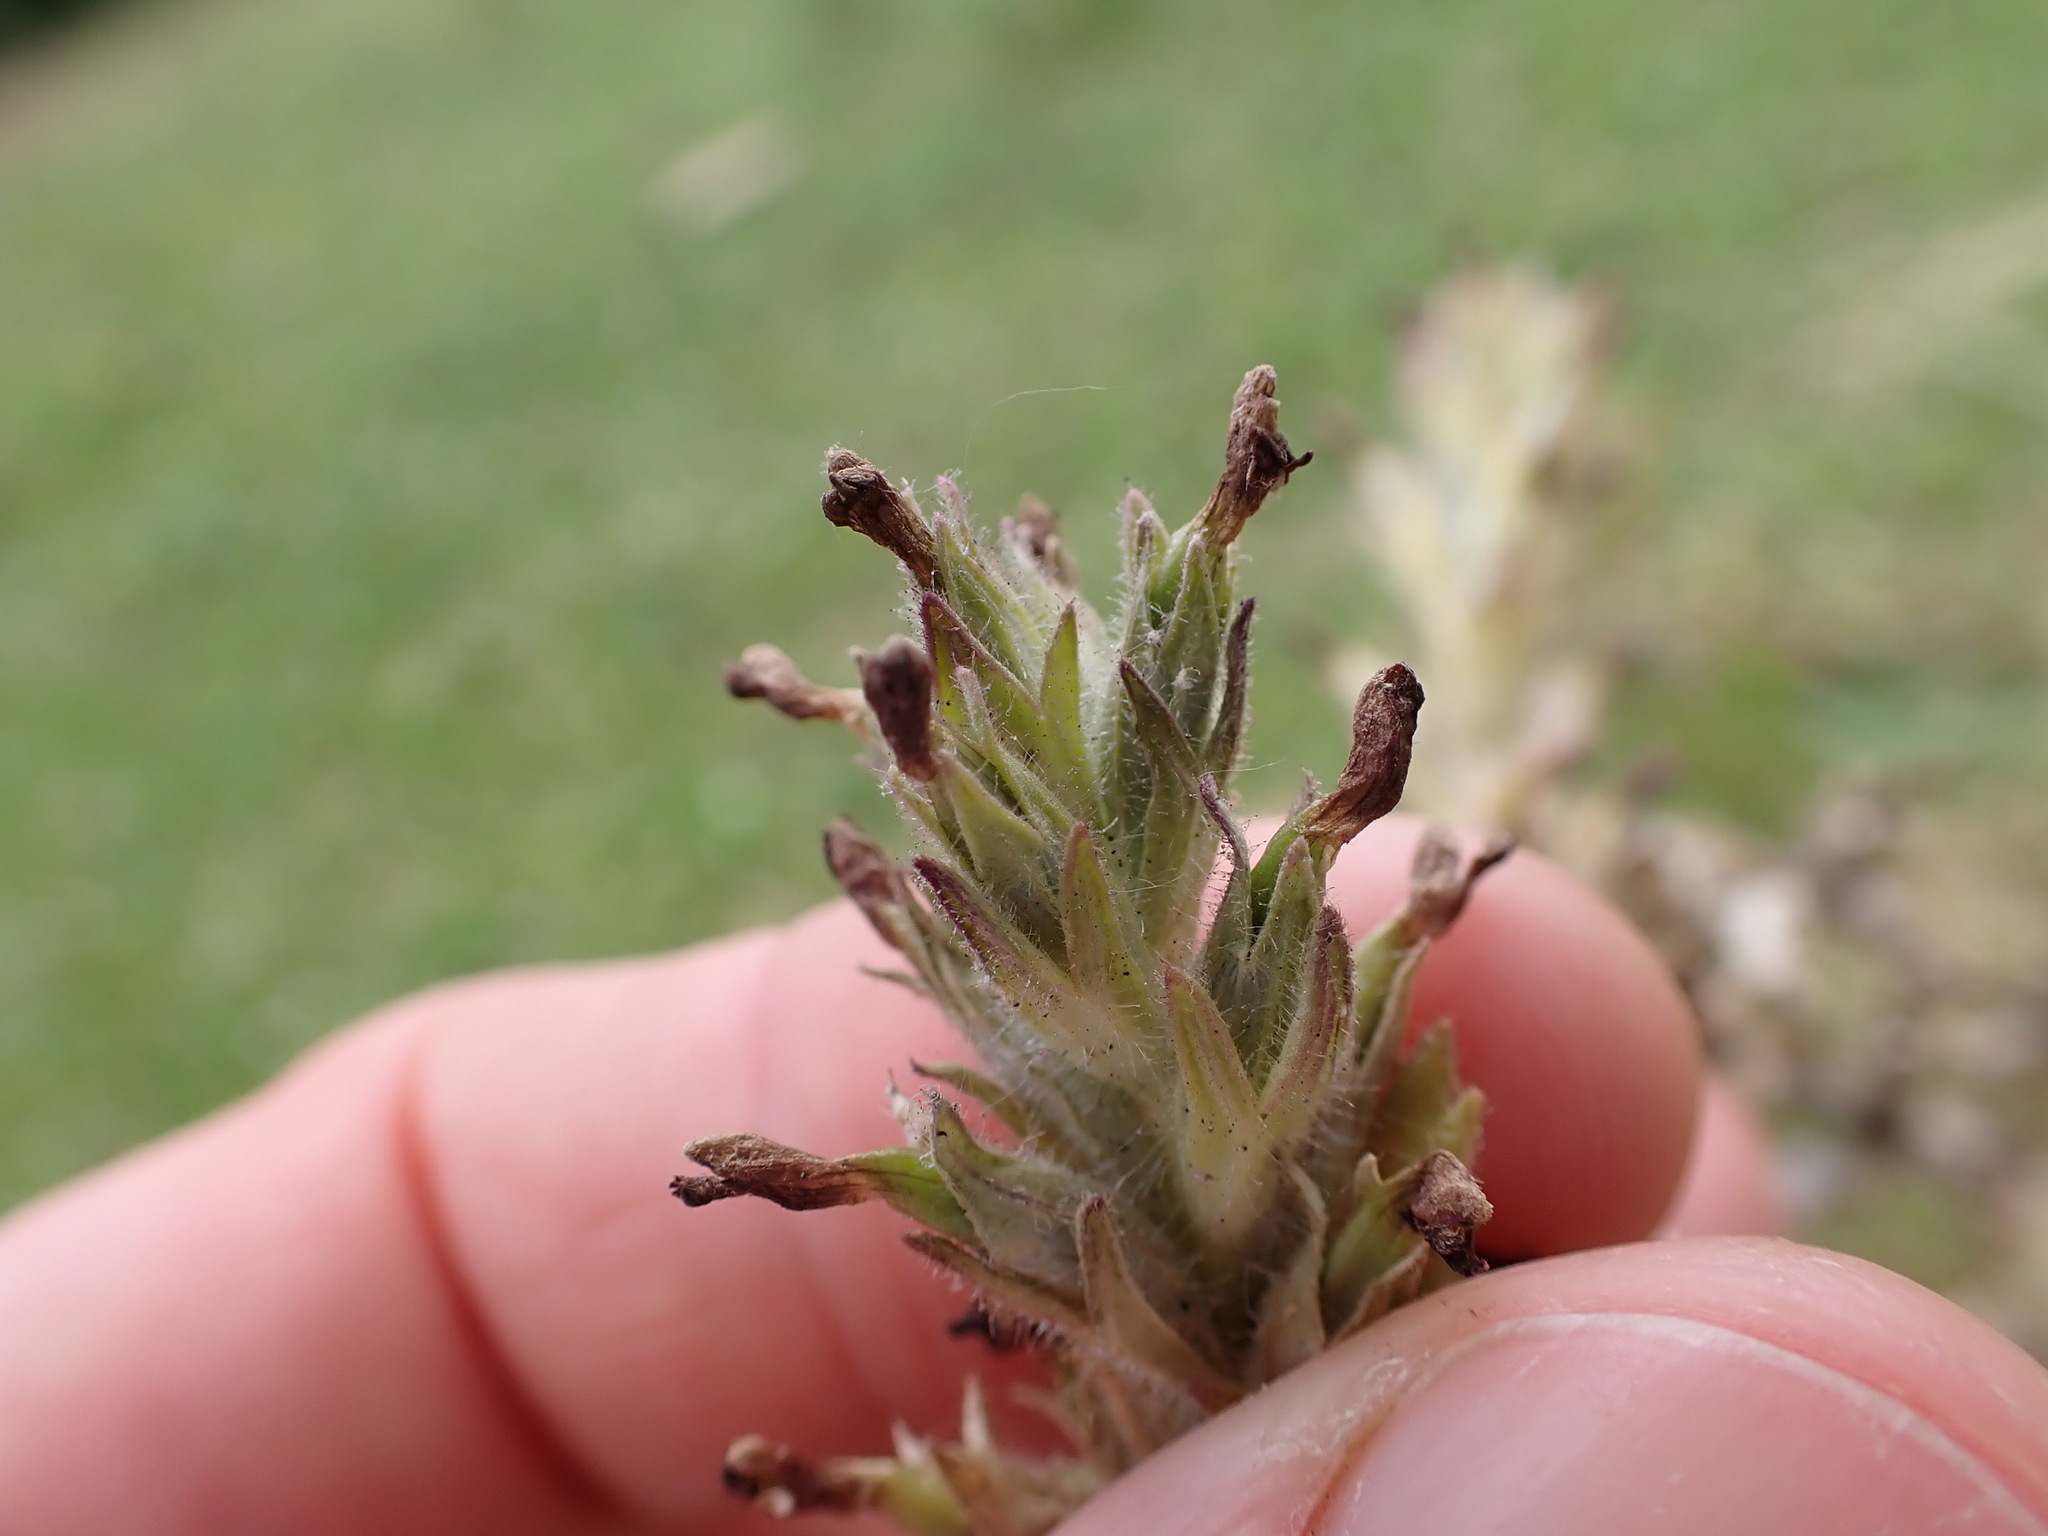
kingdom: Plantae
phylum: Tracheophyta
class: Magnoliopsida
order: Lamiales
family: Orobanchaceae
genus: Parentucellia
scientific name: Parentucellia latifolia
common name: Broadleaf glandweed
